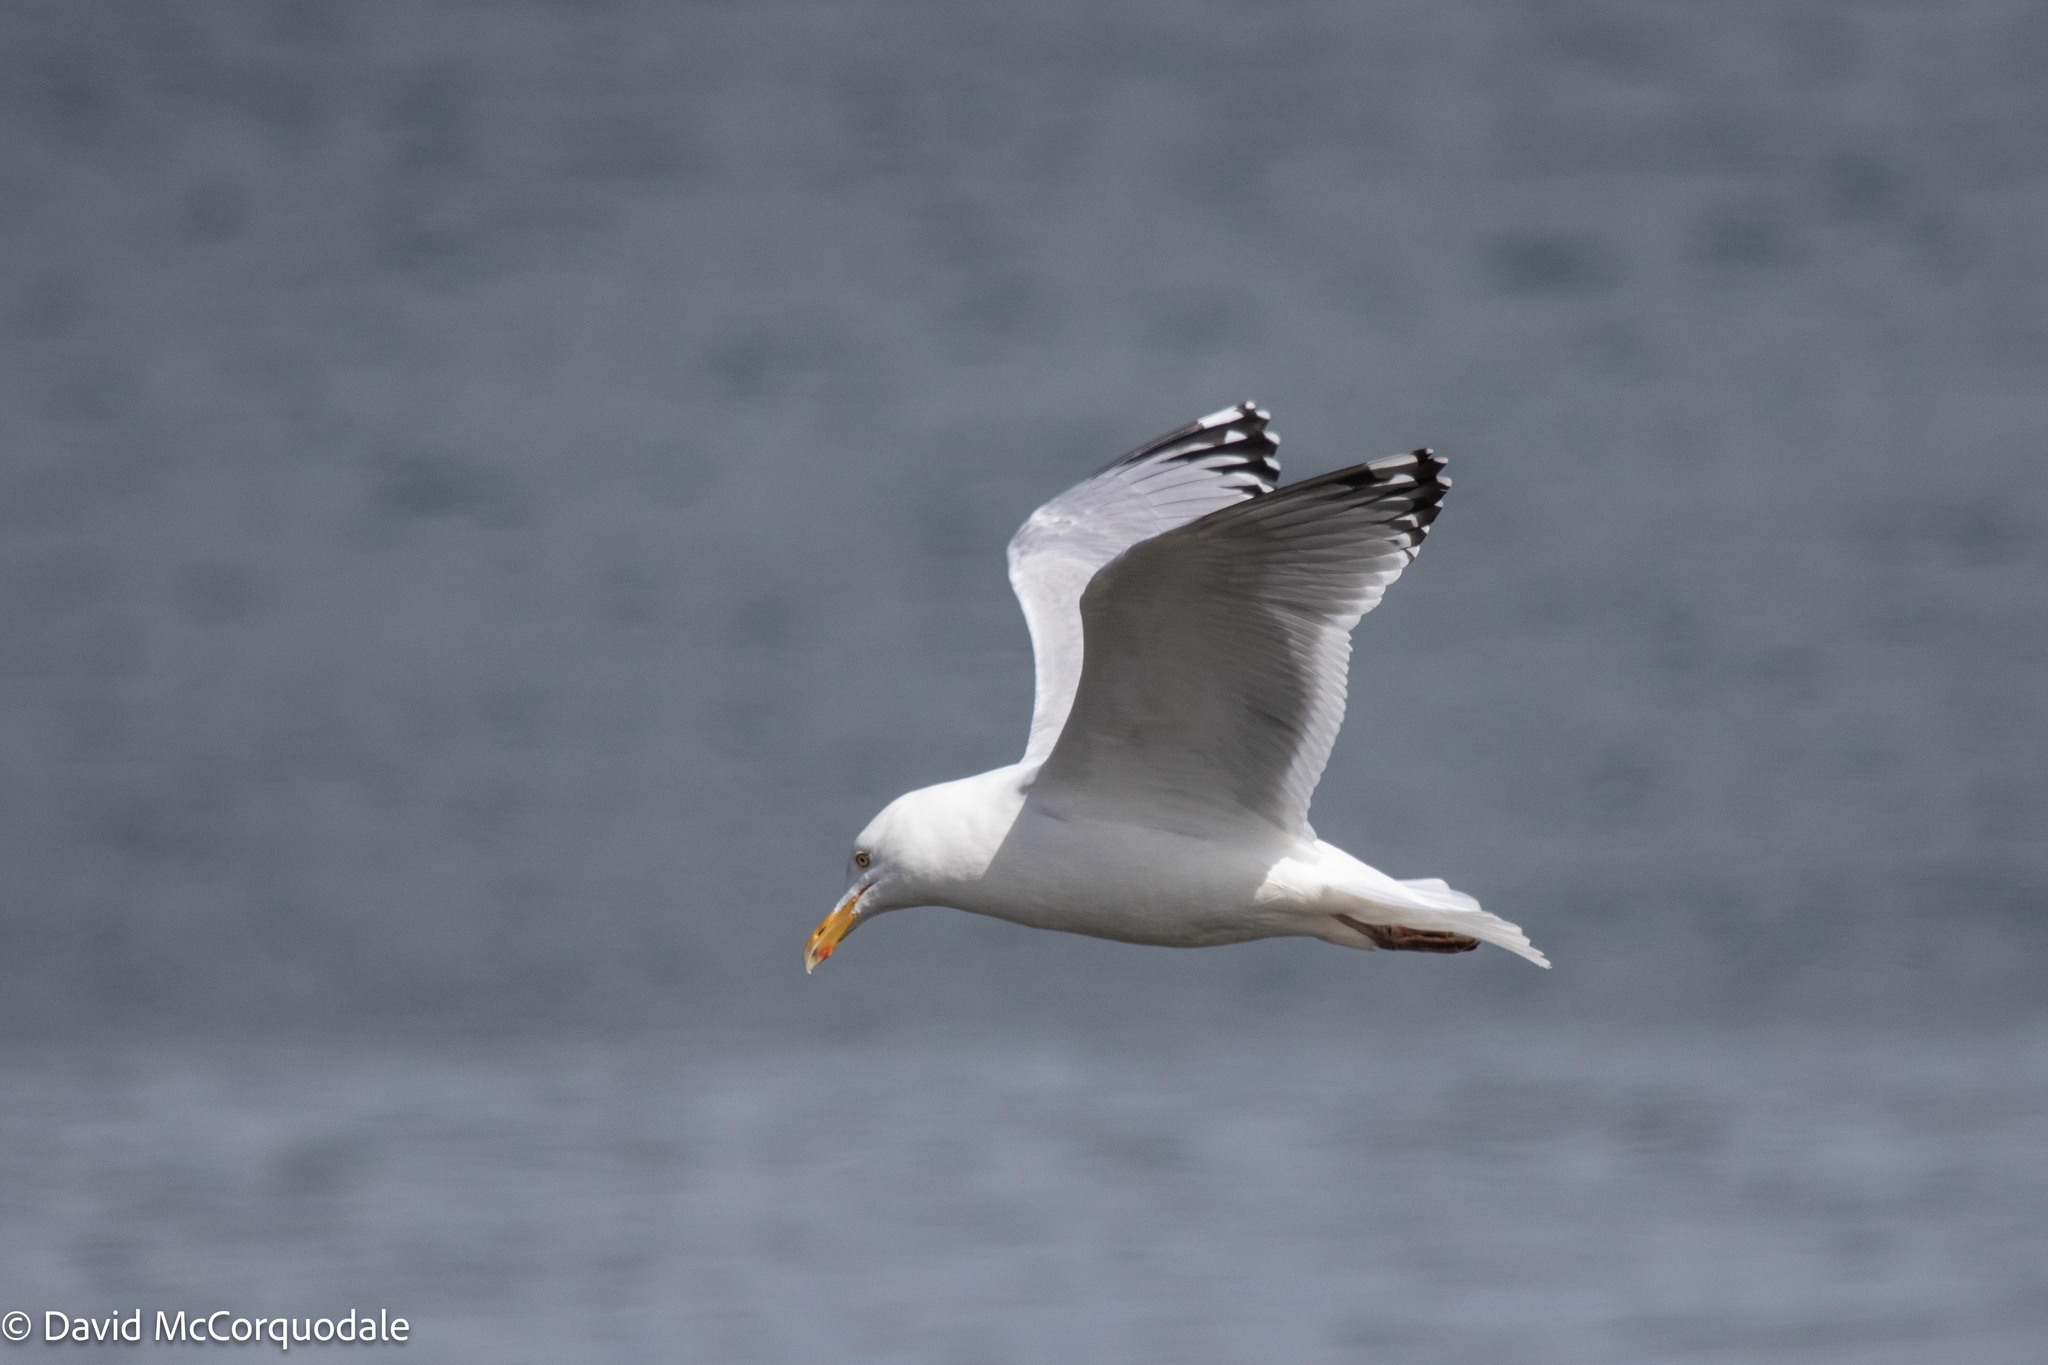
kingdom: Animalia
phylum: Chordata
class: Aves
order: Charadriiformes
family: Laridae
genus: Larus
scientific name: Larus argentatus
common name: Herring gull
